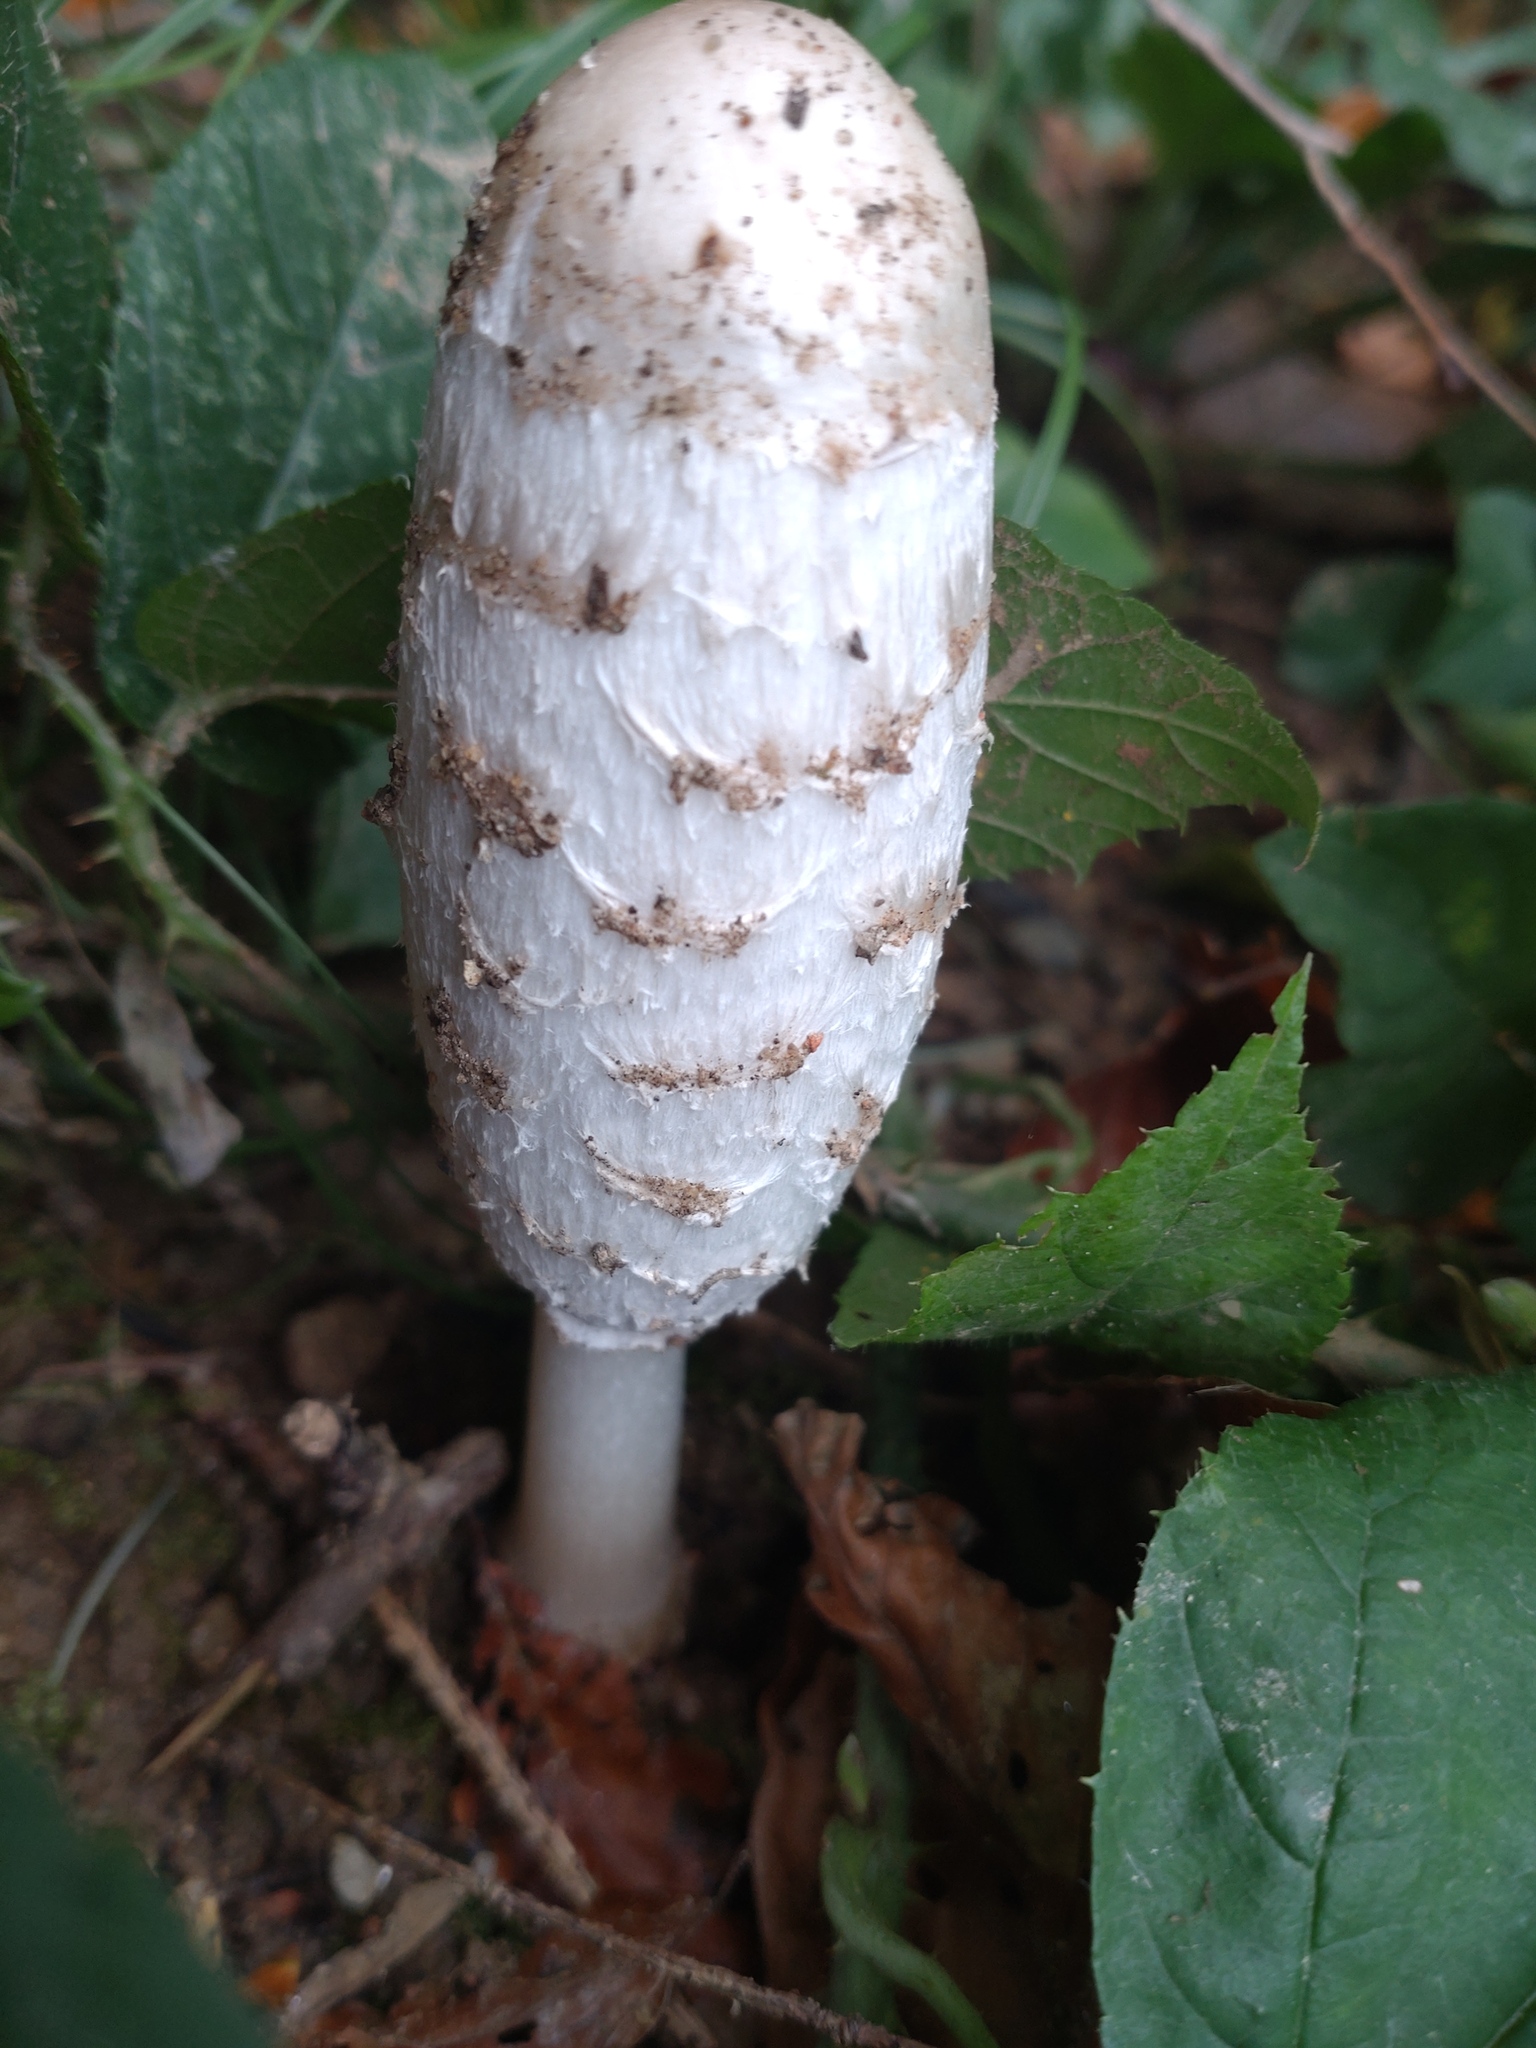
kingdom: Fungi
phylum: Basidiomycota
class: Agaricomycetes
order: Agaricales
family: Agaricaceae
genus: Coprinus
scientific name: Coprinus comatus
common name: Lawyer's wig
